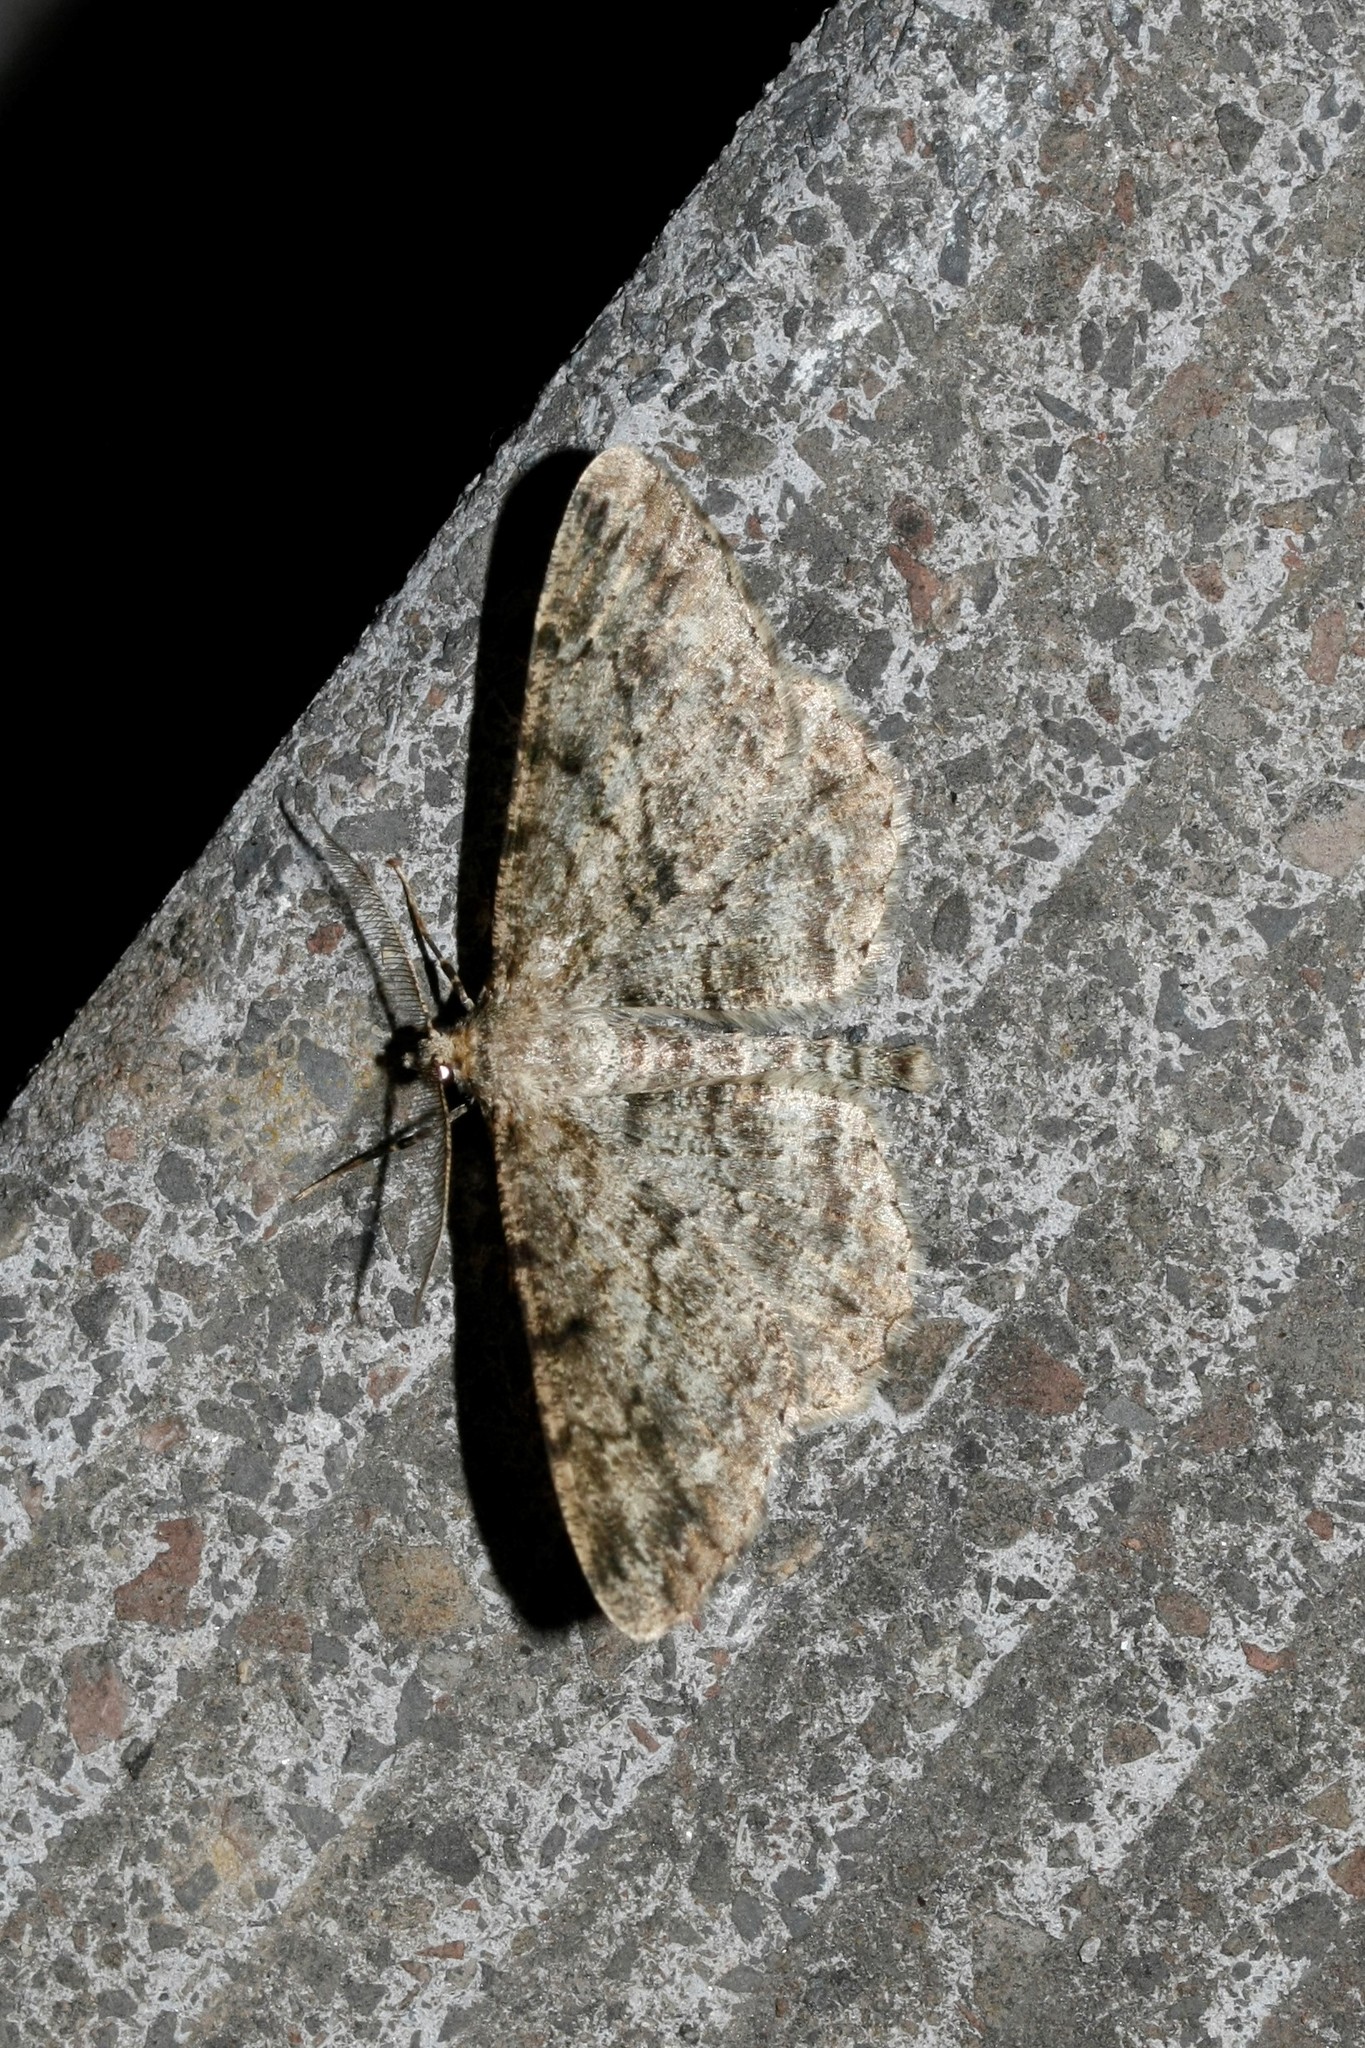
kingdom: Animalia
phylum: Arthropoda
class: Insecta
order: Lepidoptera
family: Geometridae
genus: Peribatodes
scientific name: Peribatodes rhomboidaria
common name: Willow beauty
